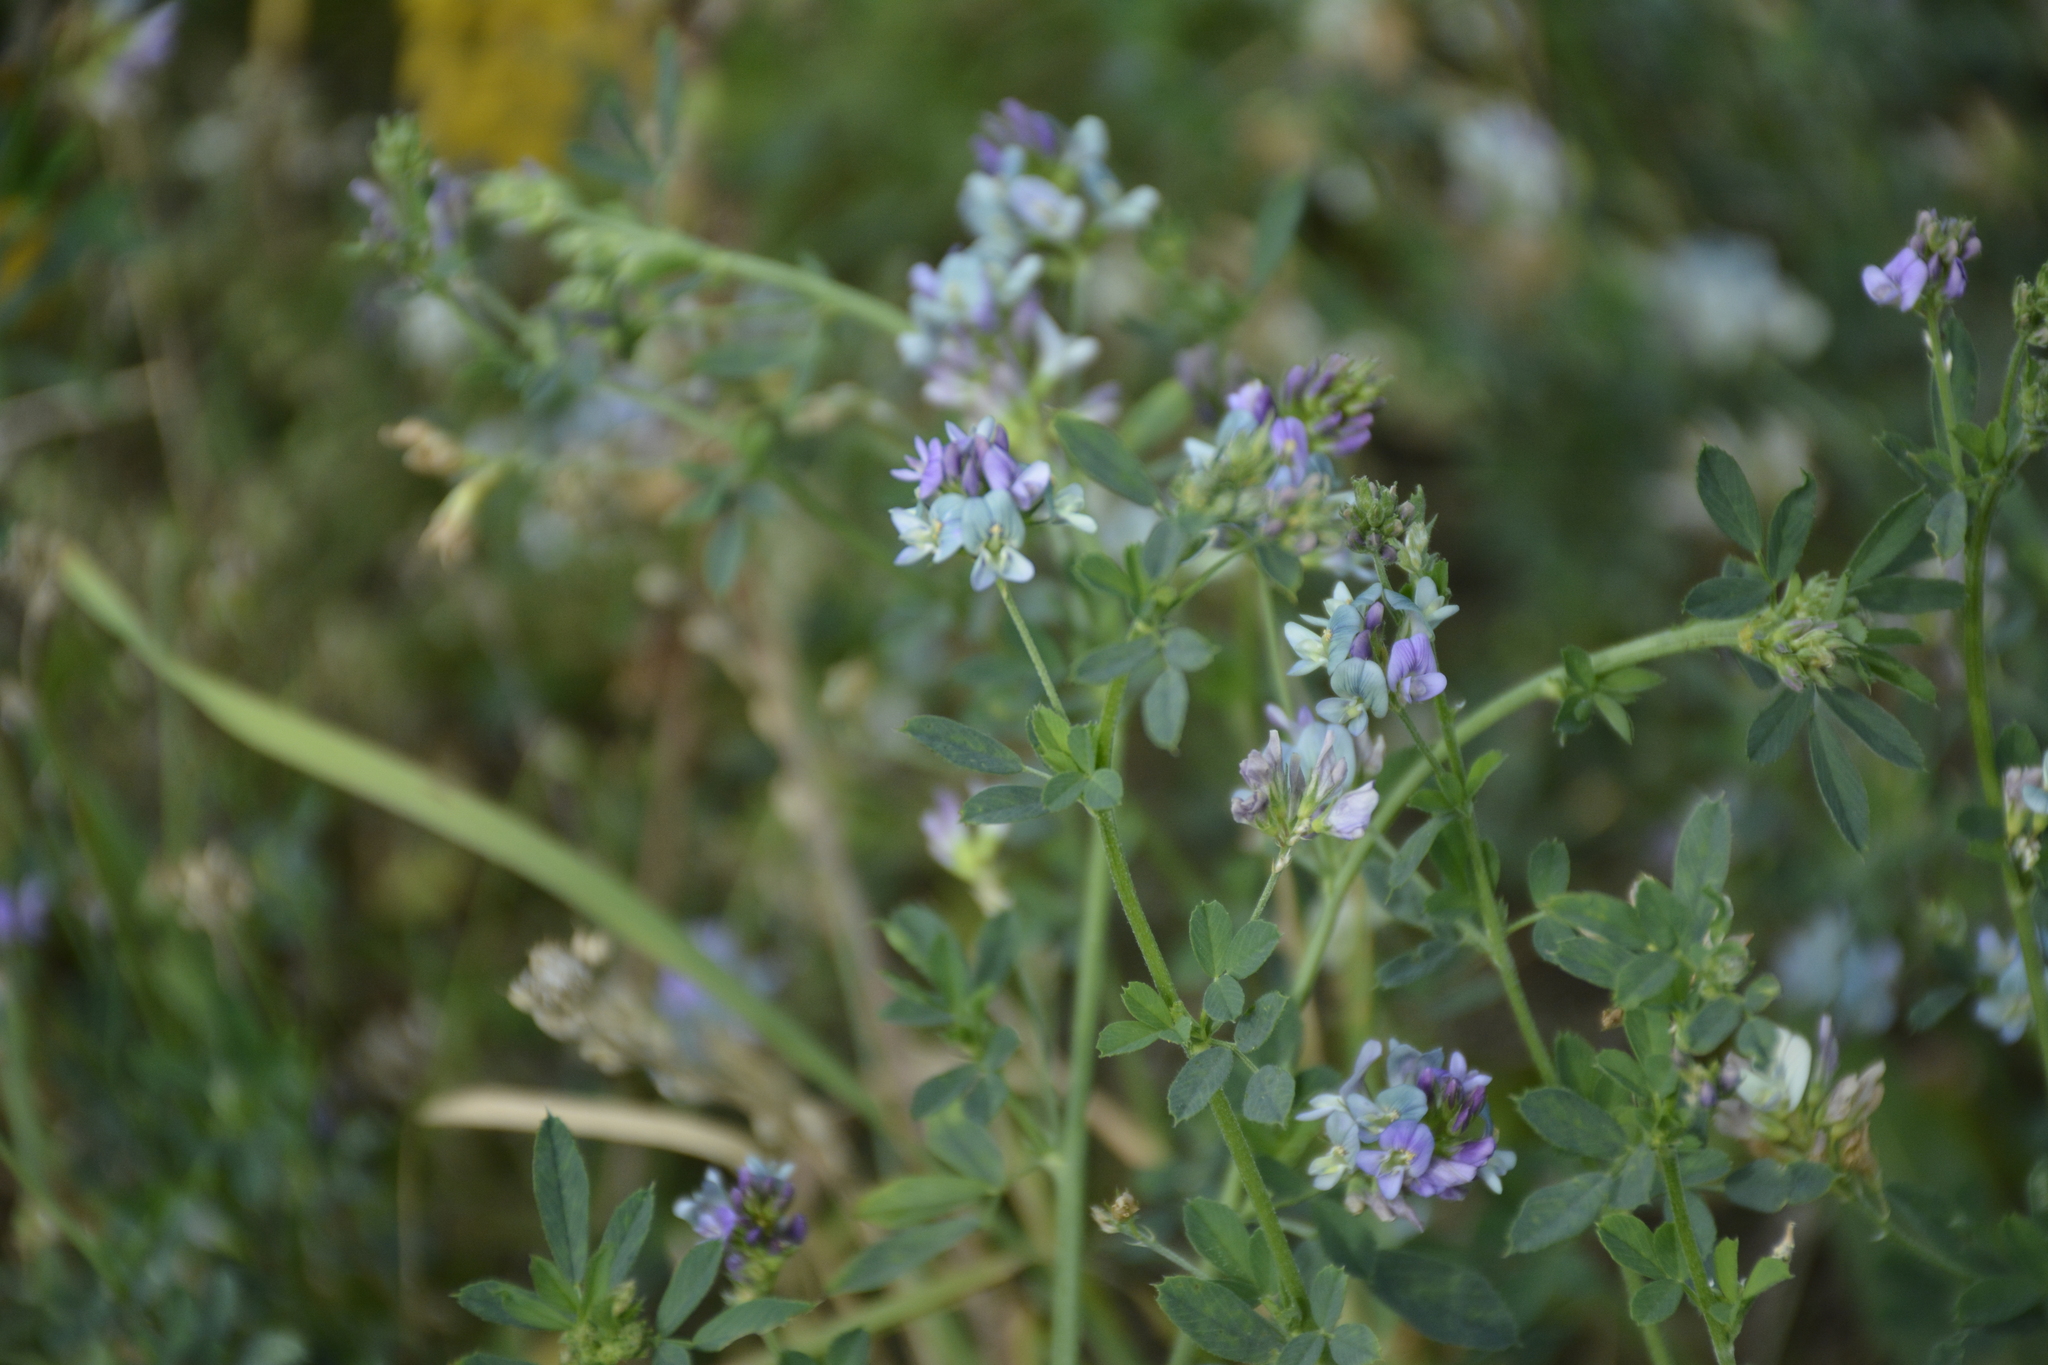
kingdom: Plantae
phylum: Tracheophyta
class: Magnoliopsida
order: Fabales
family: Fabaceae
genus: Medicago
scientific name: Medicago varia
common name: Sand lucerne
